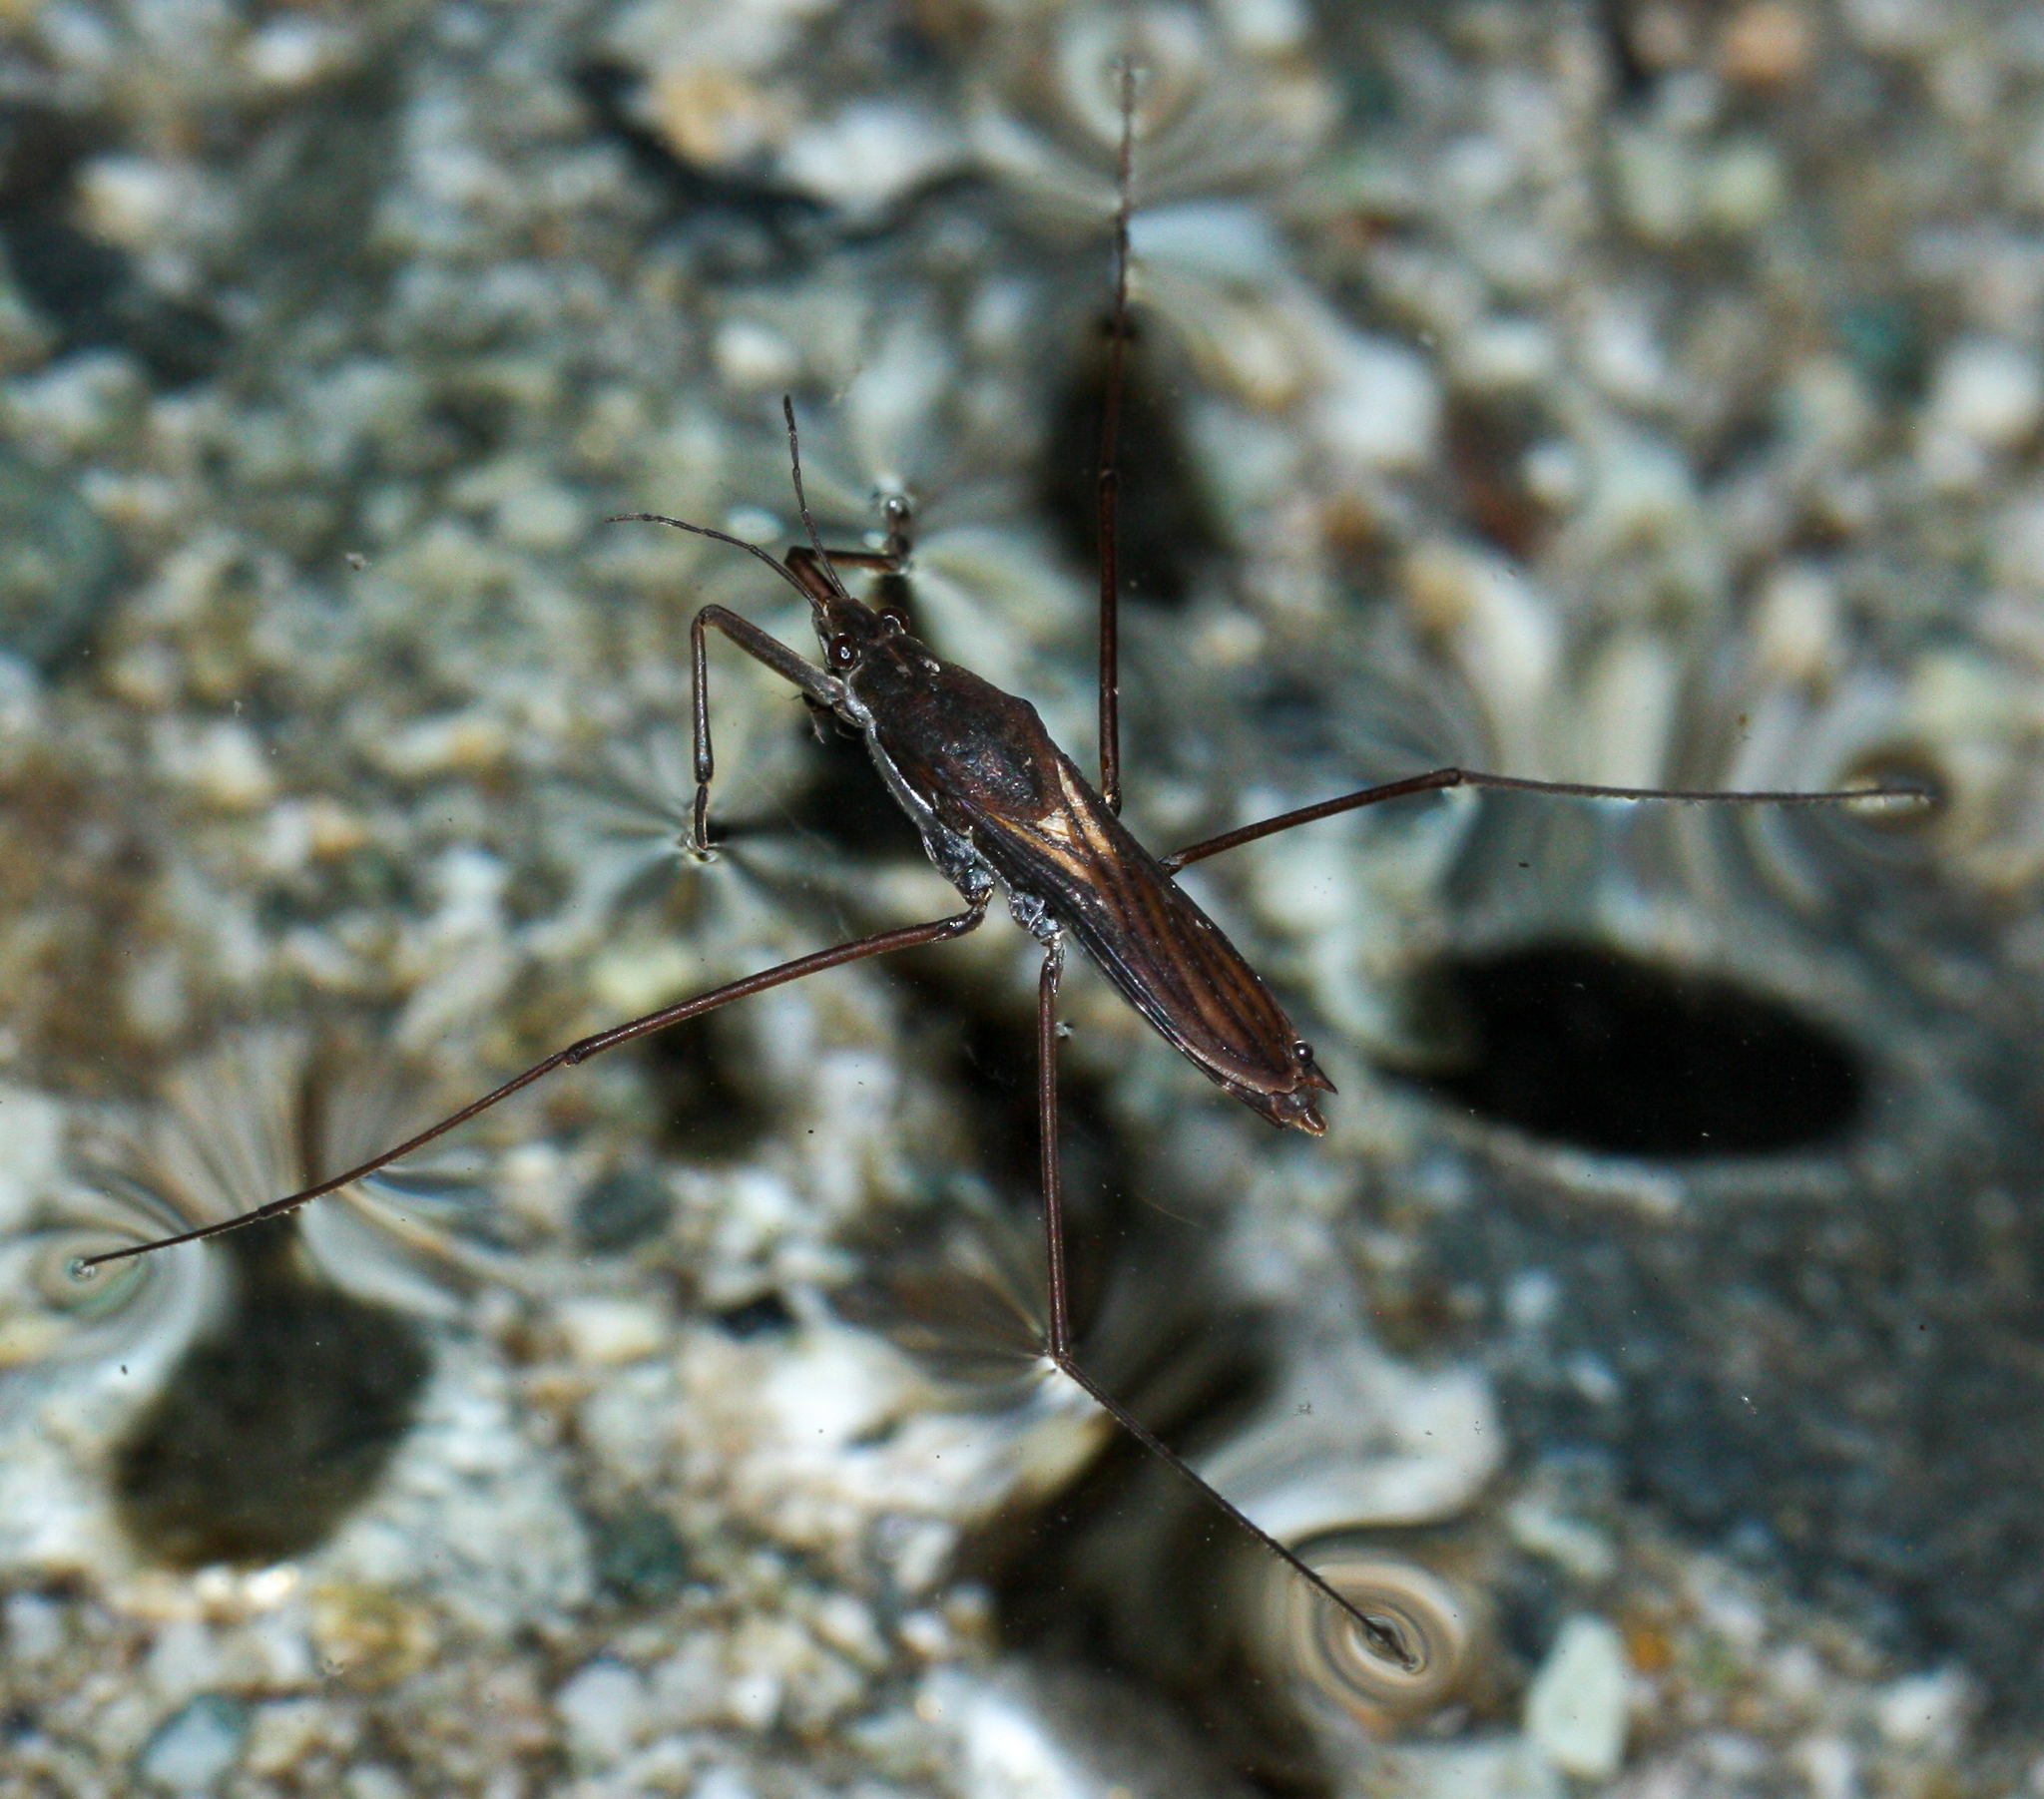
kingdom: Animalia
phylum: Arthropoda
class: Insecta
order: Hemiptera
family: Gerridae
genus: Aquarius
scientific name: Aquarius remigis
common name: Common water strider
